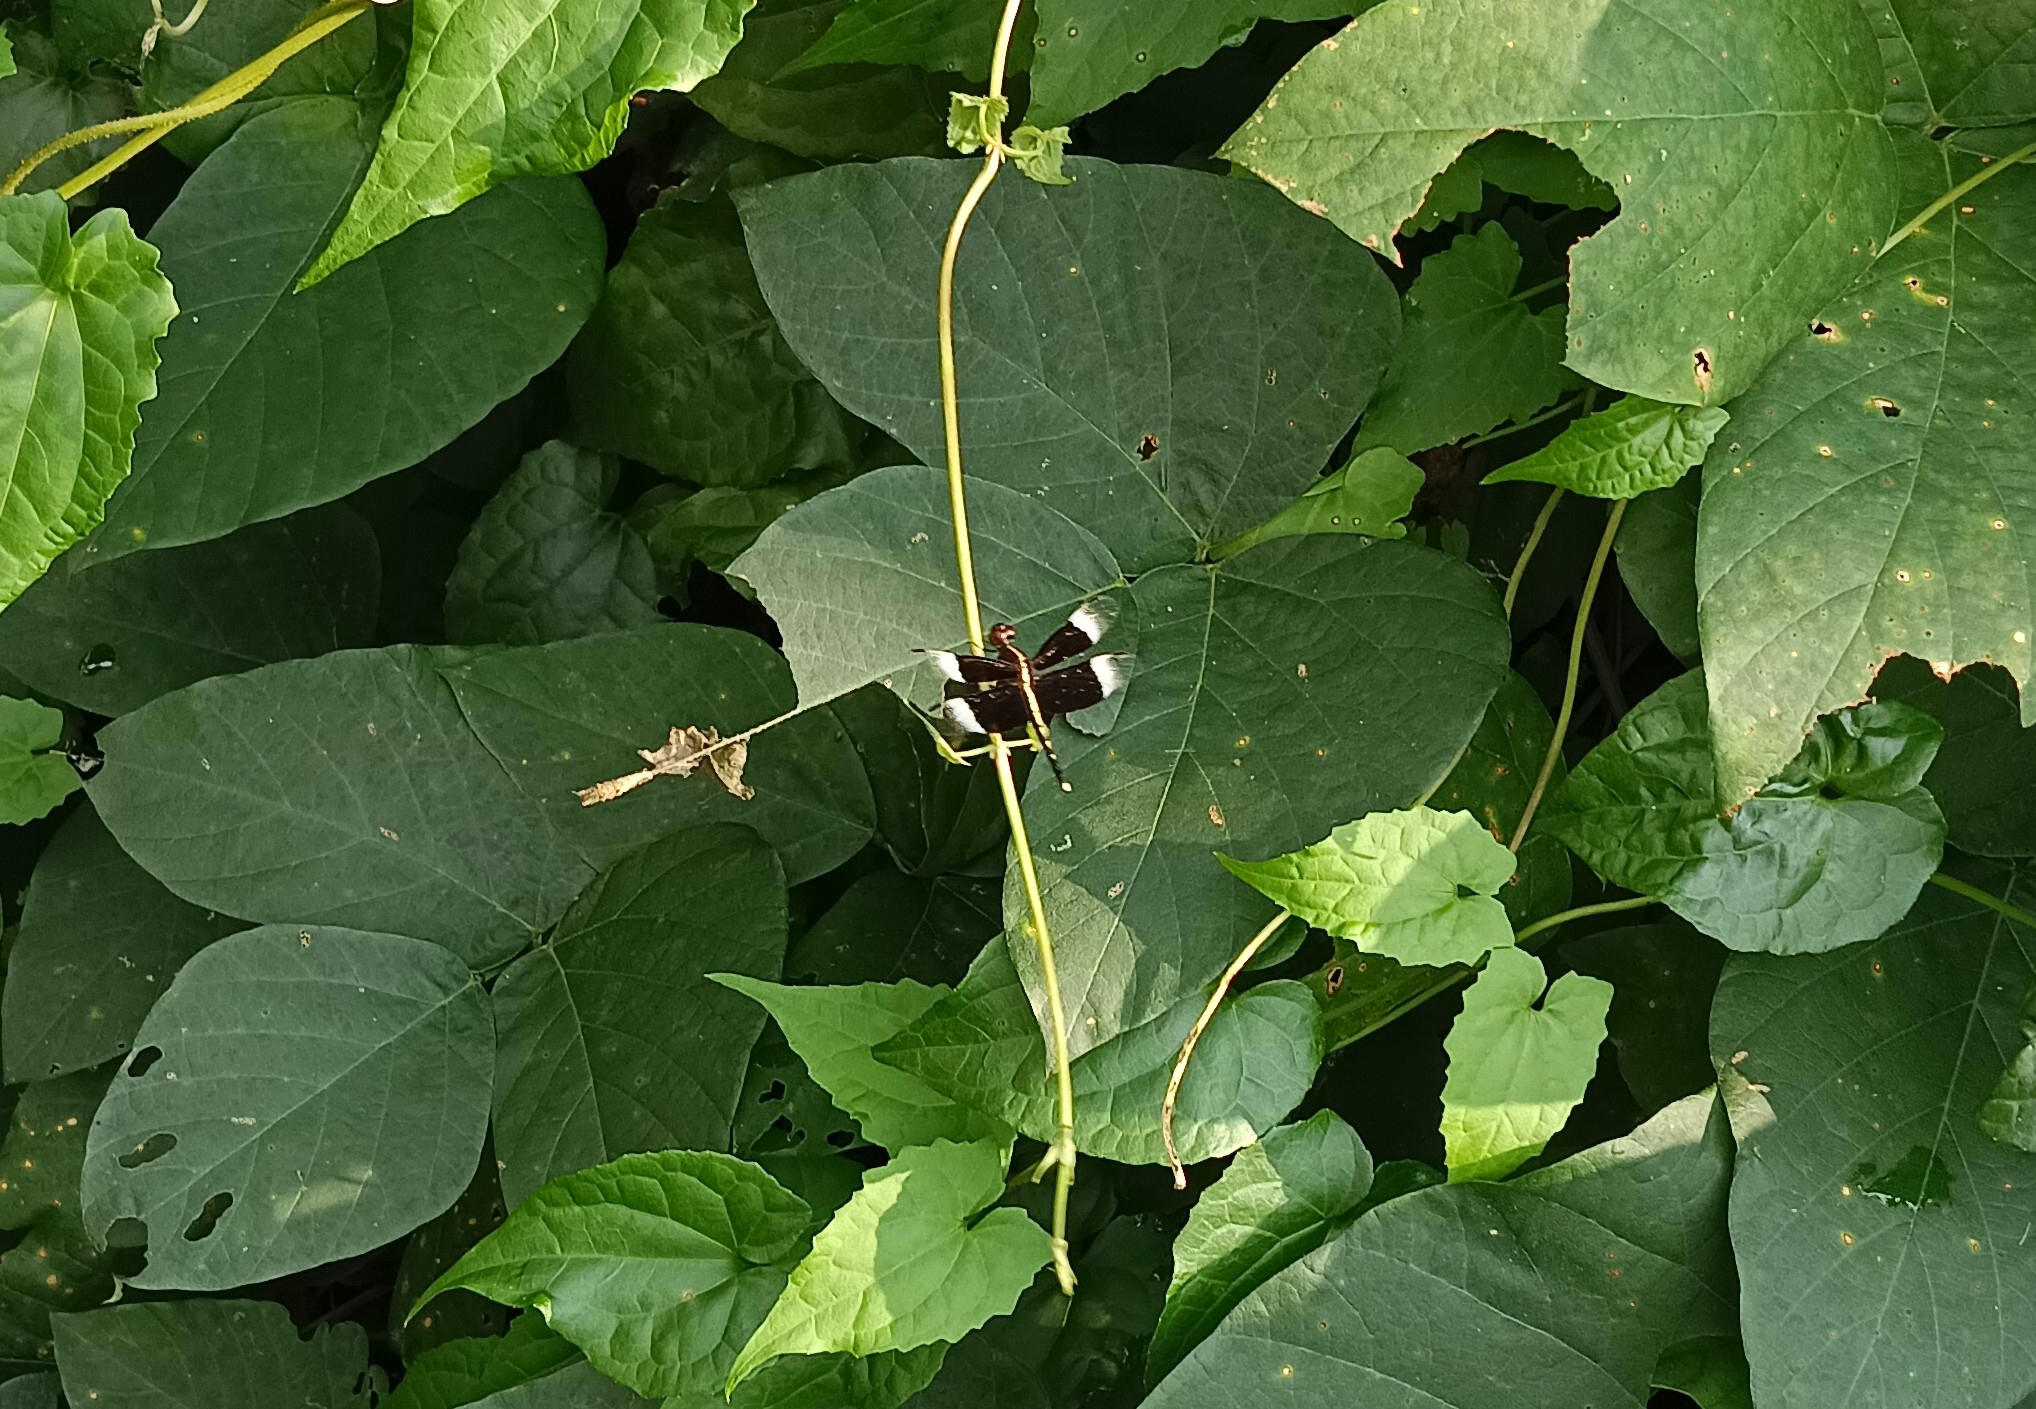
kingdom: Animalia
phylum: Arthropoda
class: Insecta
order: Odonata
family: Libellulidae
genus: Neurothemis
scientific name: Neurothemis tullia
